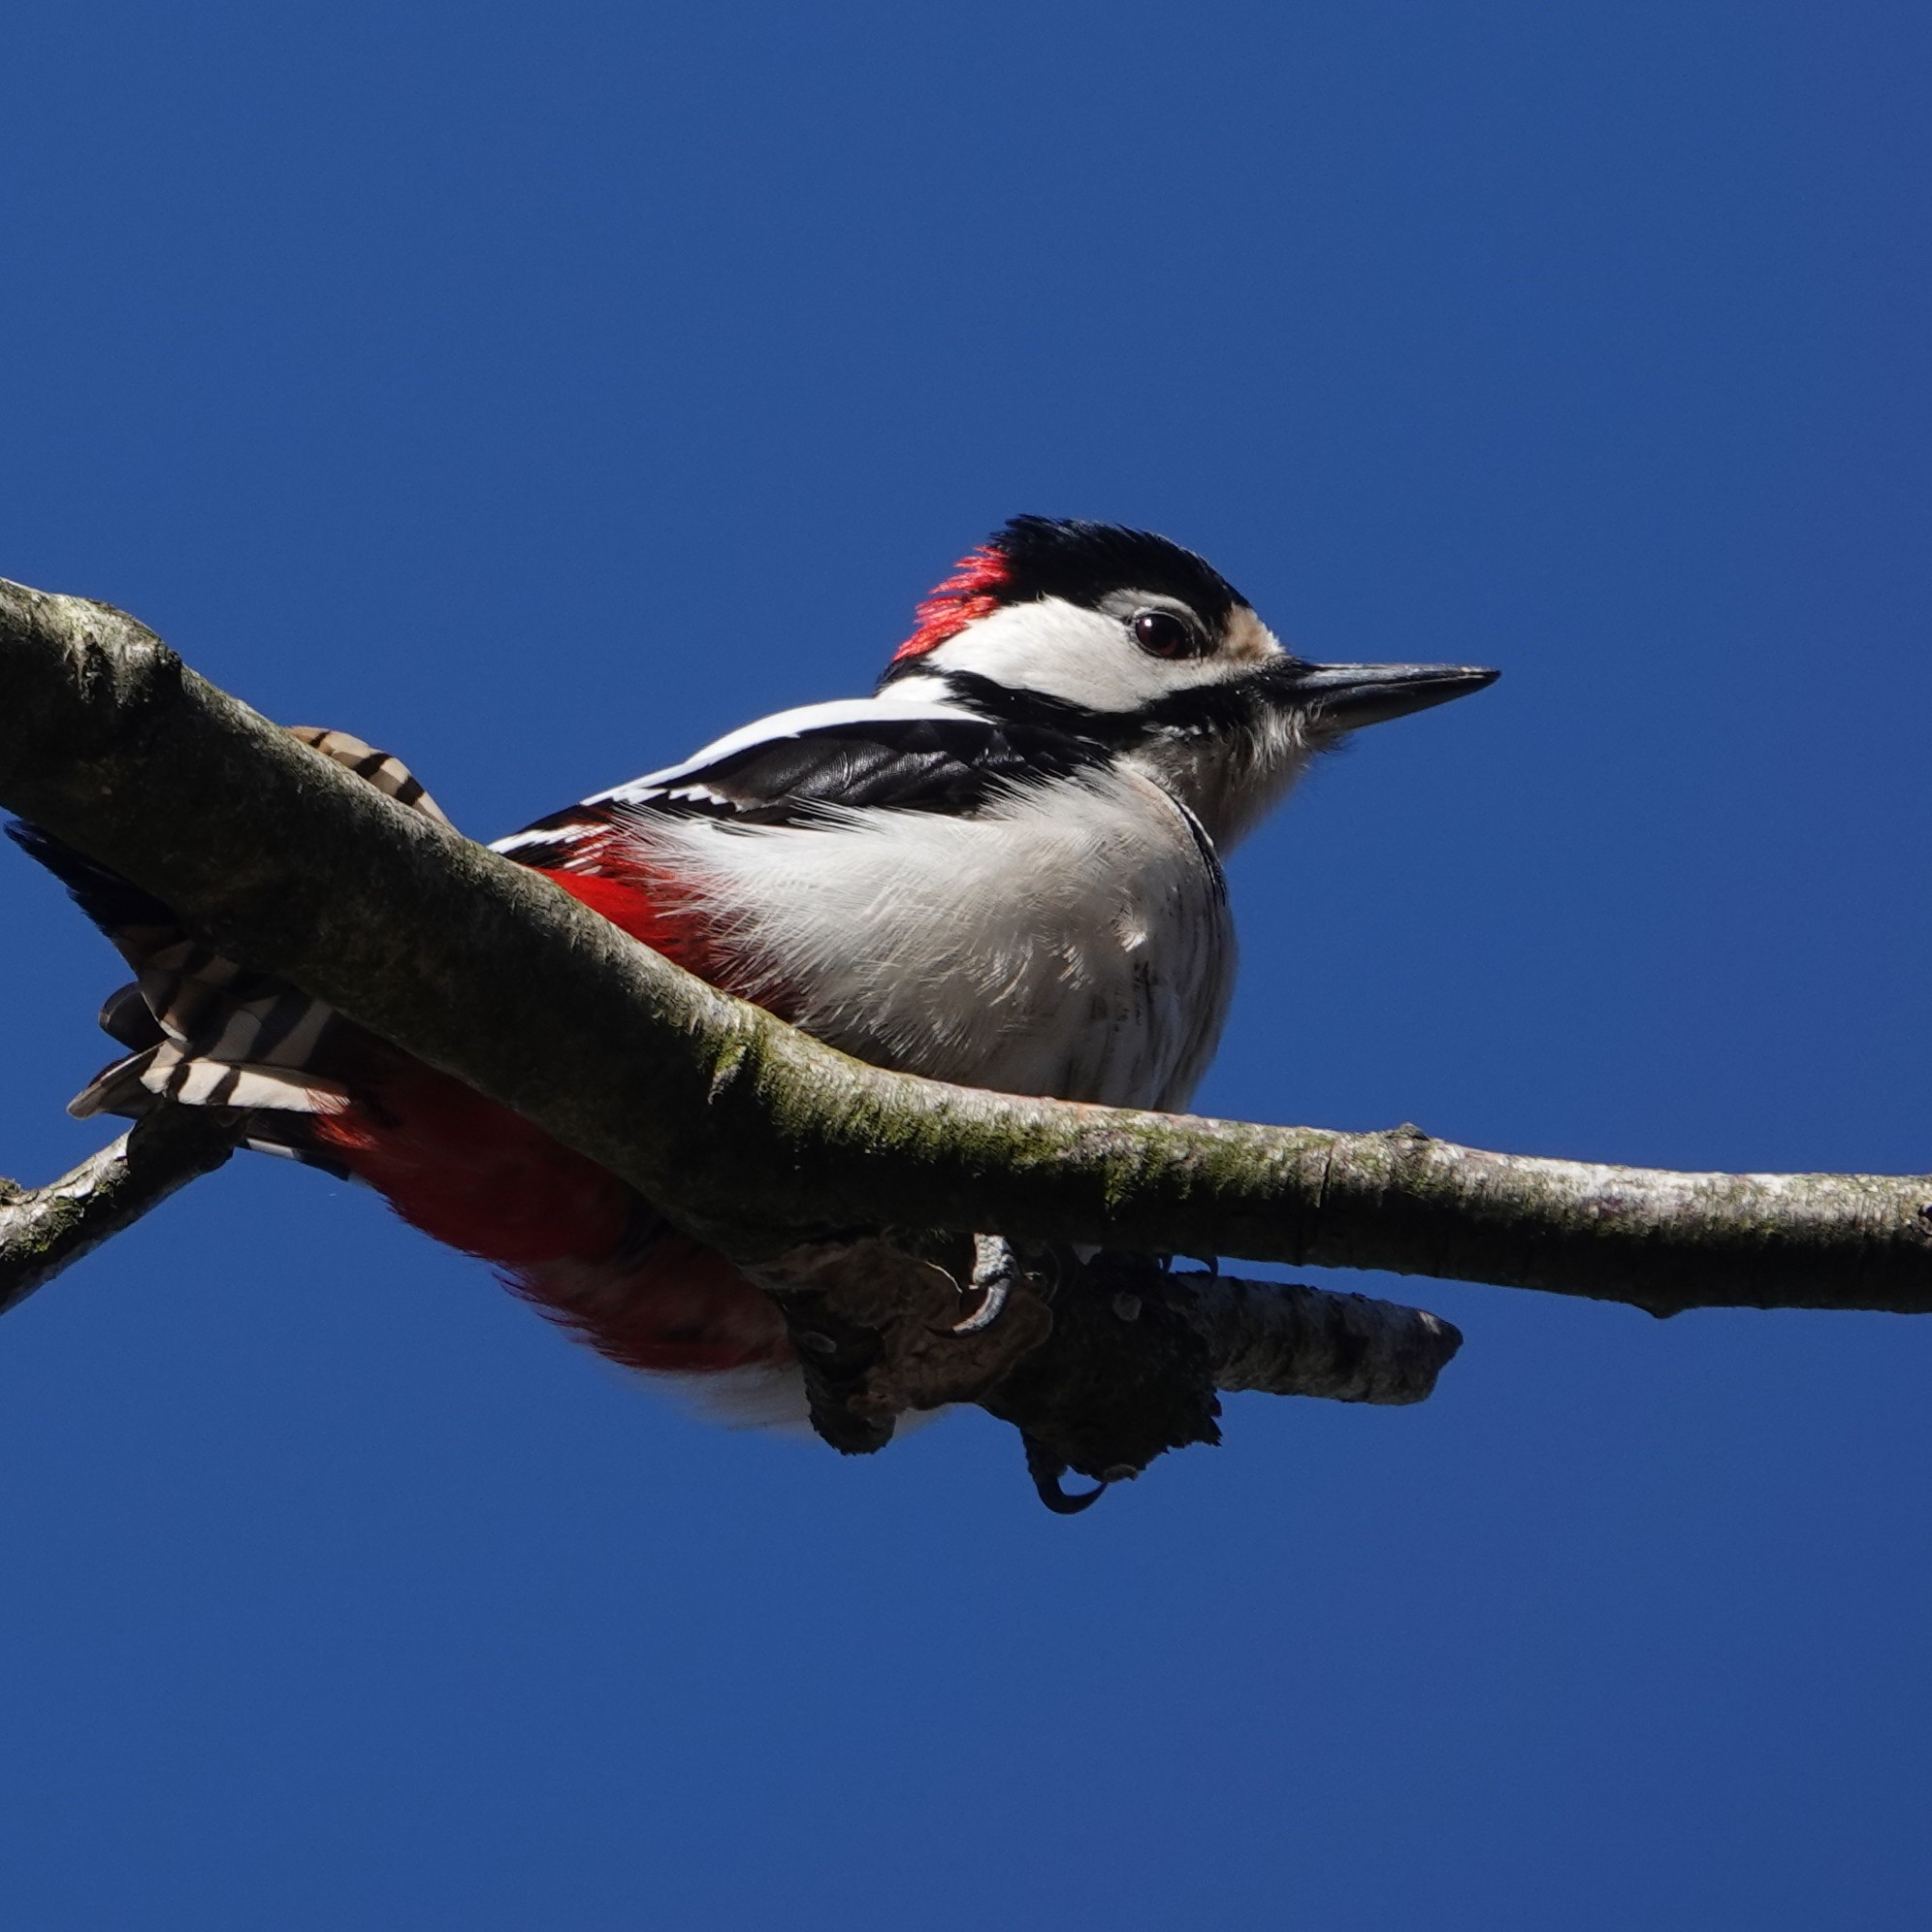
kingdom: Animalia
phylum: Chordata
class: Aves
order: Piciformes
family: Picidae
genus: Dendrocopos
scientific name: Dendrocopos major
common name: Great spotted woodpecker
